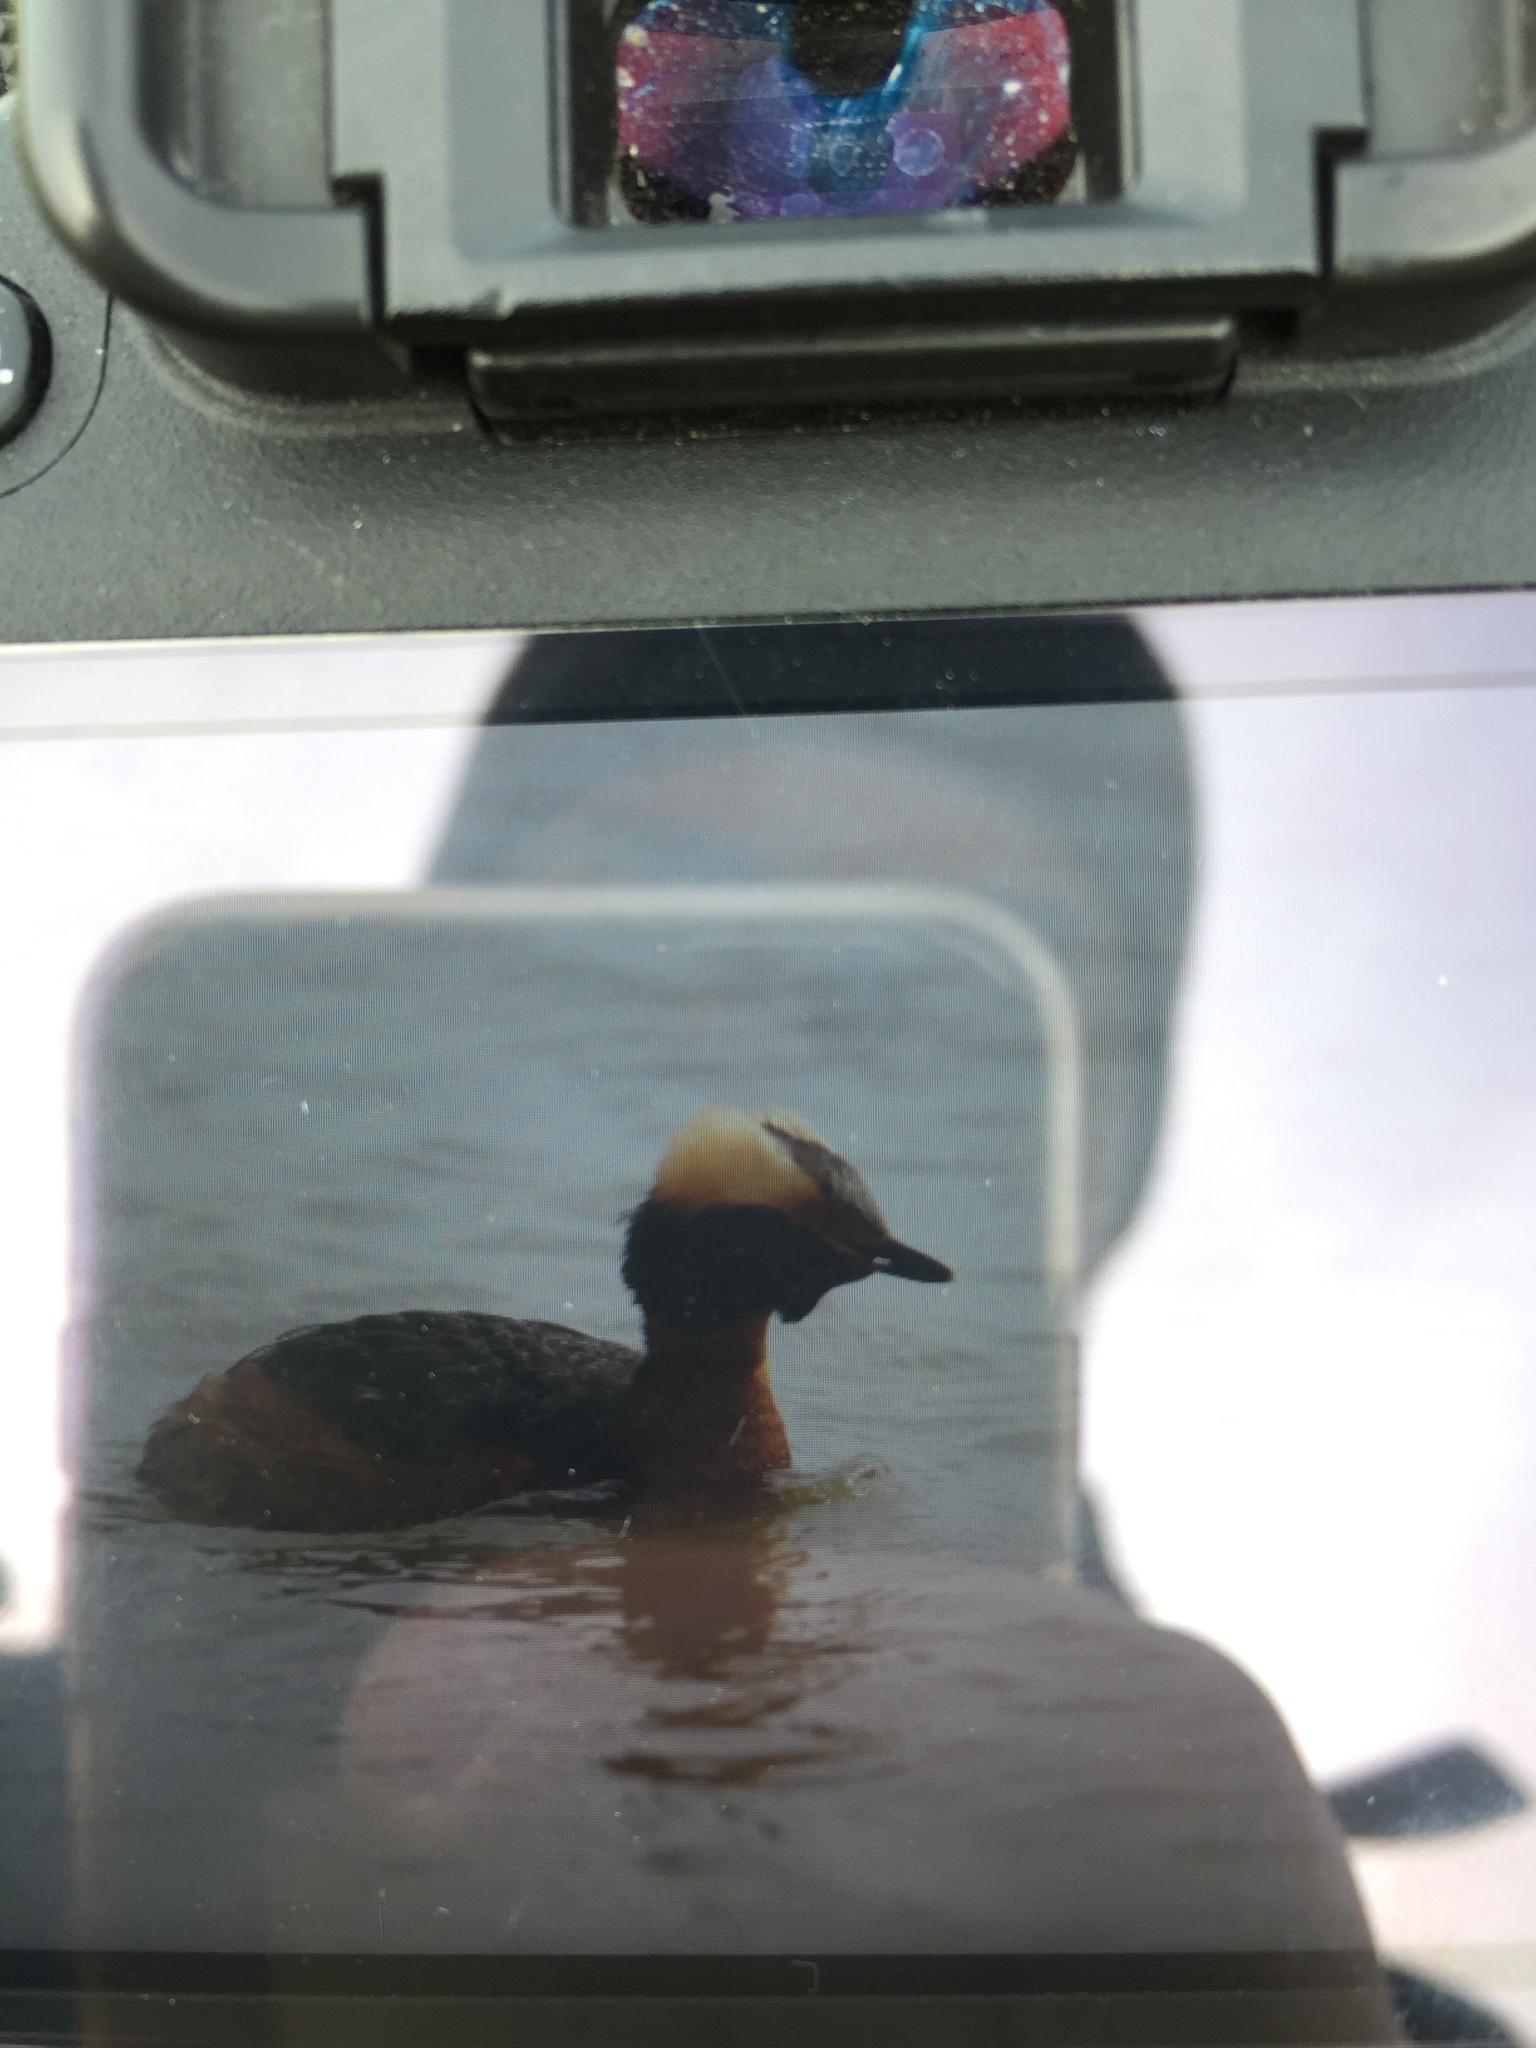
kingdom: Animalia
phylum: Chordata
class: Aves
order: Podicipediformes
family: Podicipedidae
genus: Podiceps
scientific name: Podiceps auritus
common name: Horned grebe
